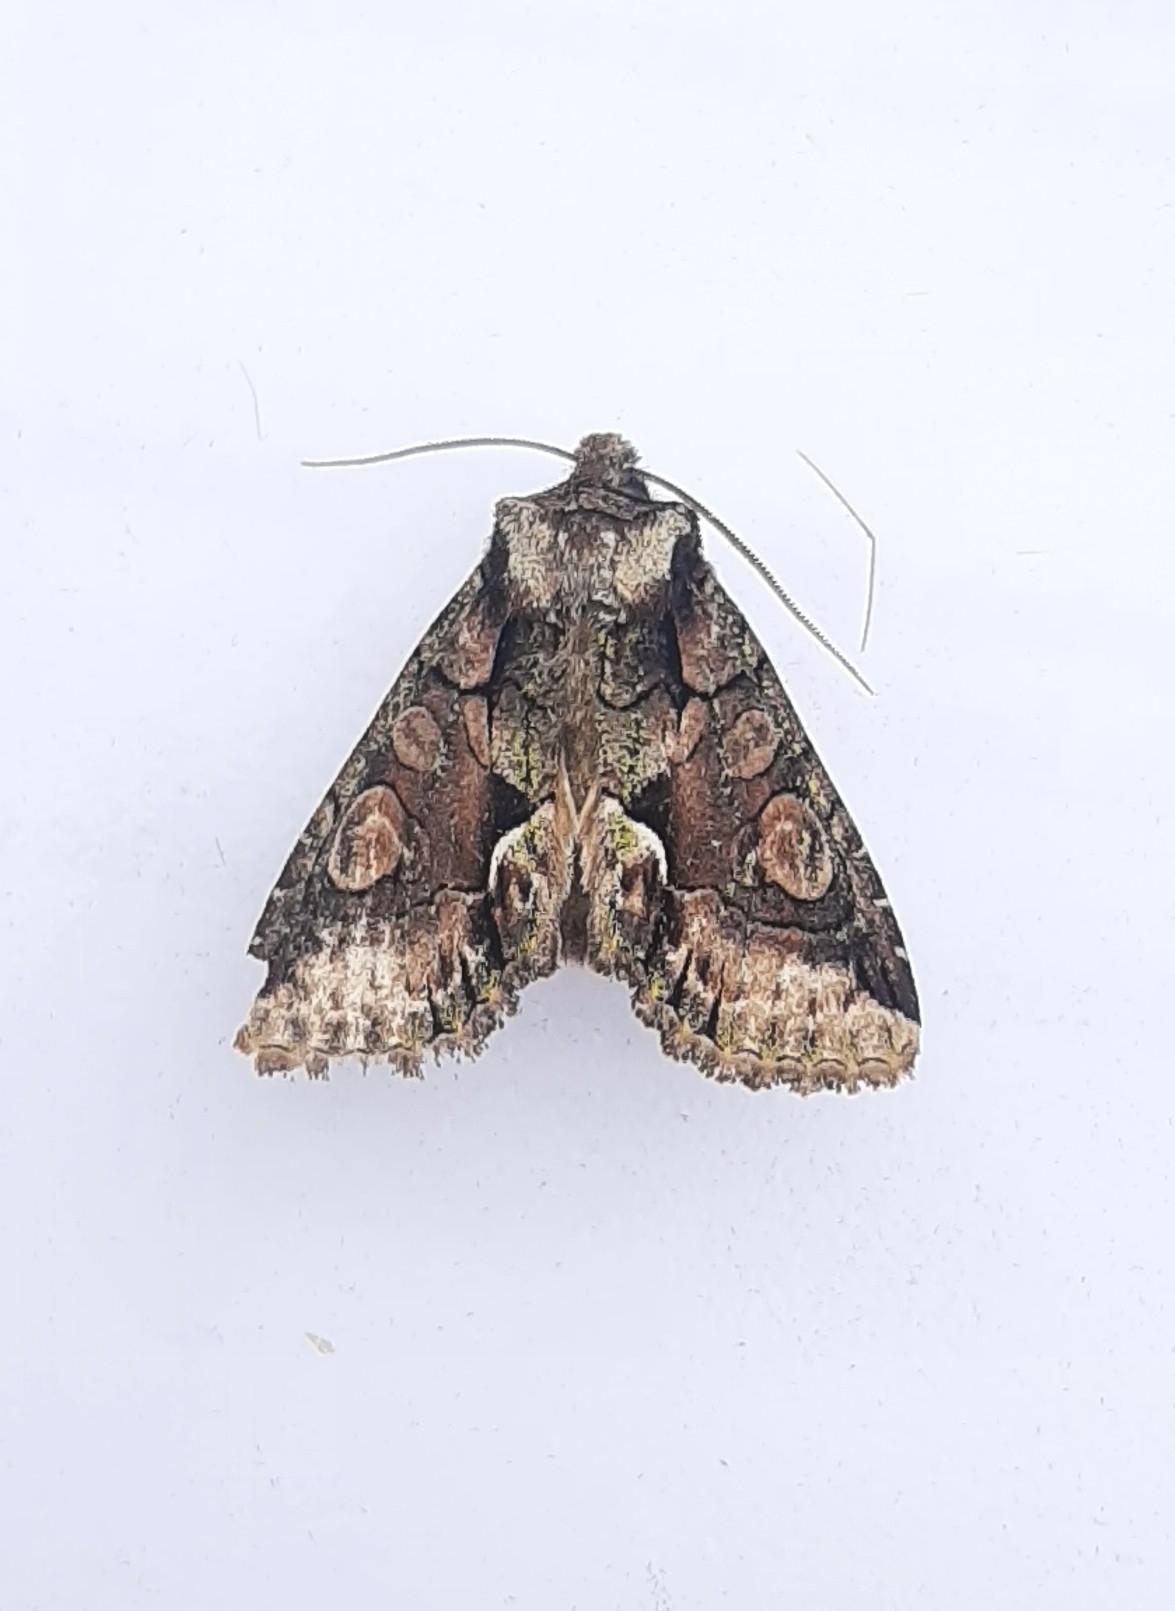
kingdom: Animalia
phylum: Arthropoda
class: Insecta
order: Lepidoptera
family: Noctuidae
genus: Allophyes
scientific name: Allophyes oxyacanthae
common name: Green-brindled crescent
